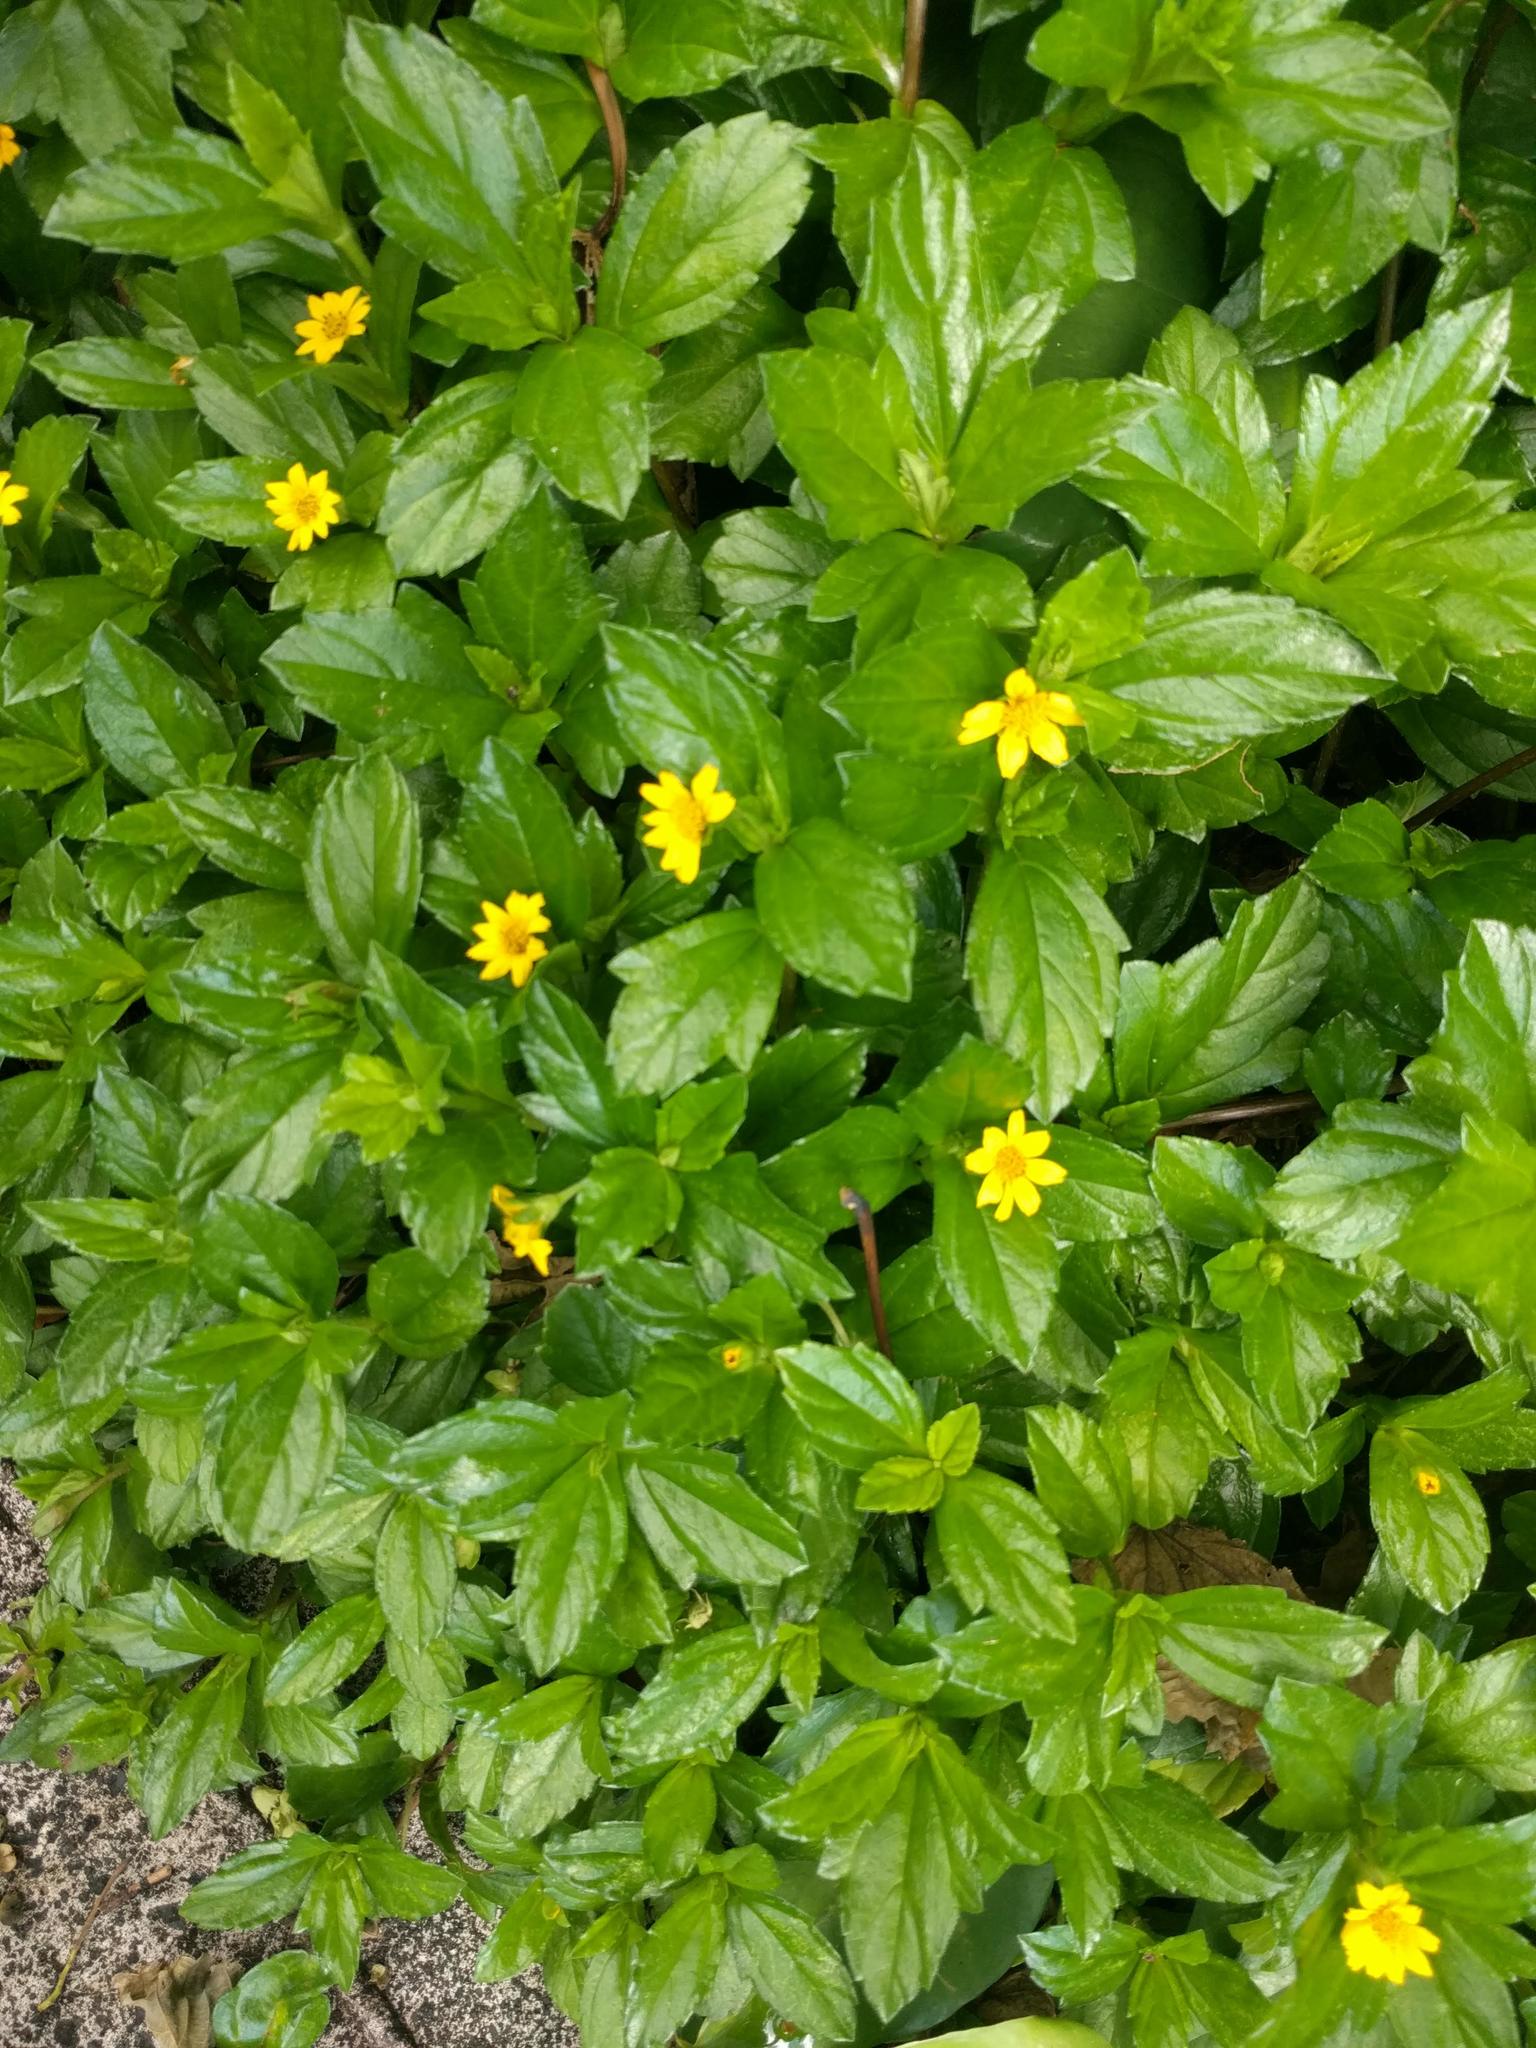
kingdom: Plantae
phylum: Tracheophyta
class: Magnoliopsida
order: Asterales
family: Asteraceae
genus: Sphagneticola
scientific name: Sphagneticola trilobata
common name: Bay biscayne creeping-oxeye
